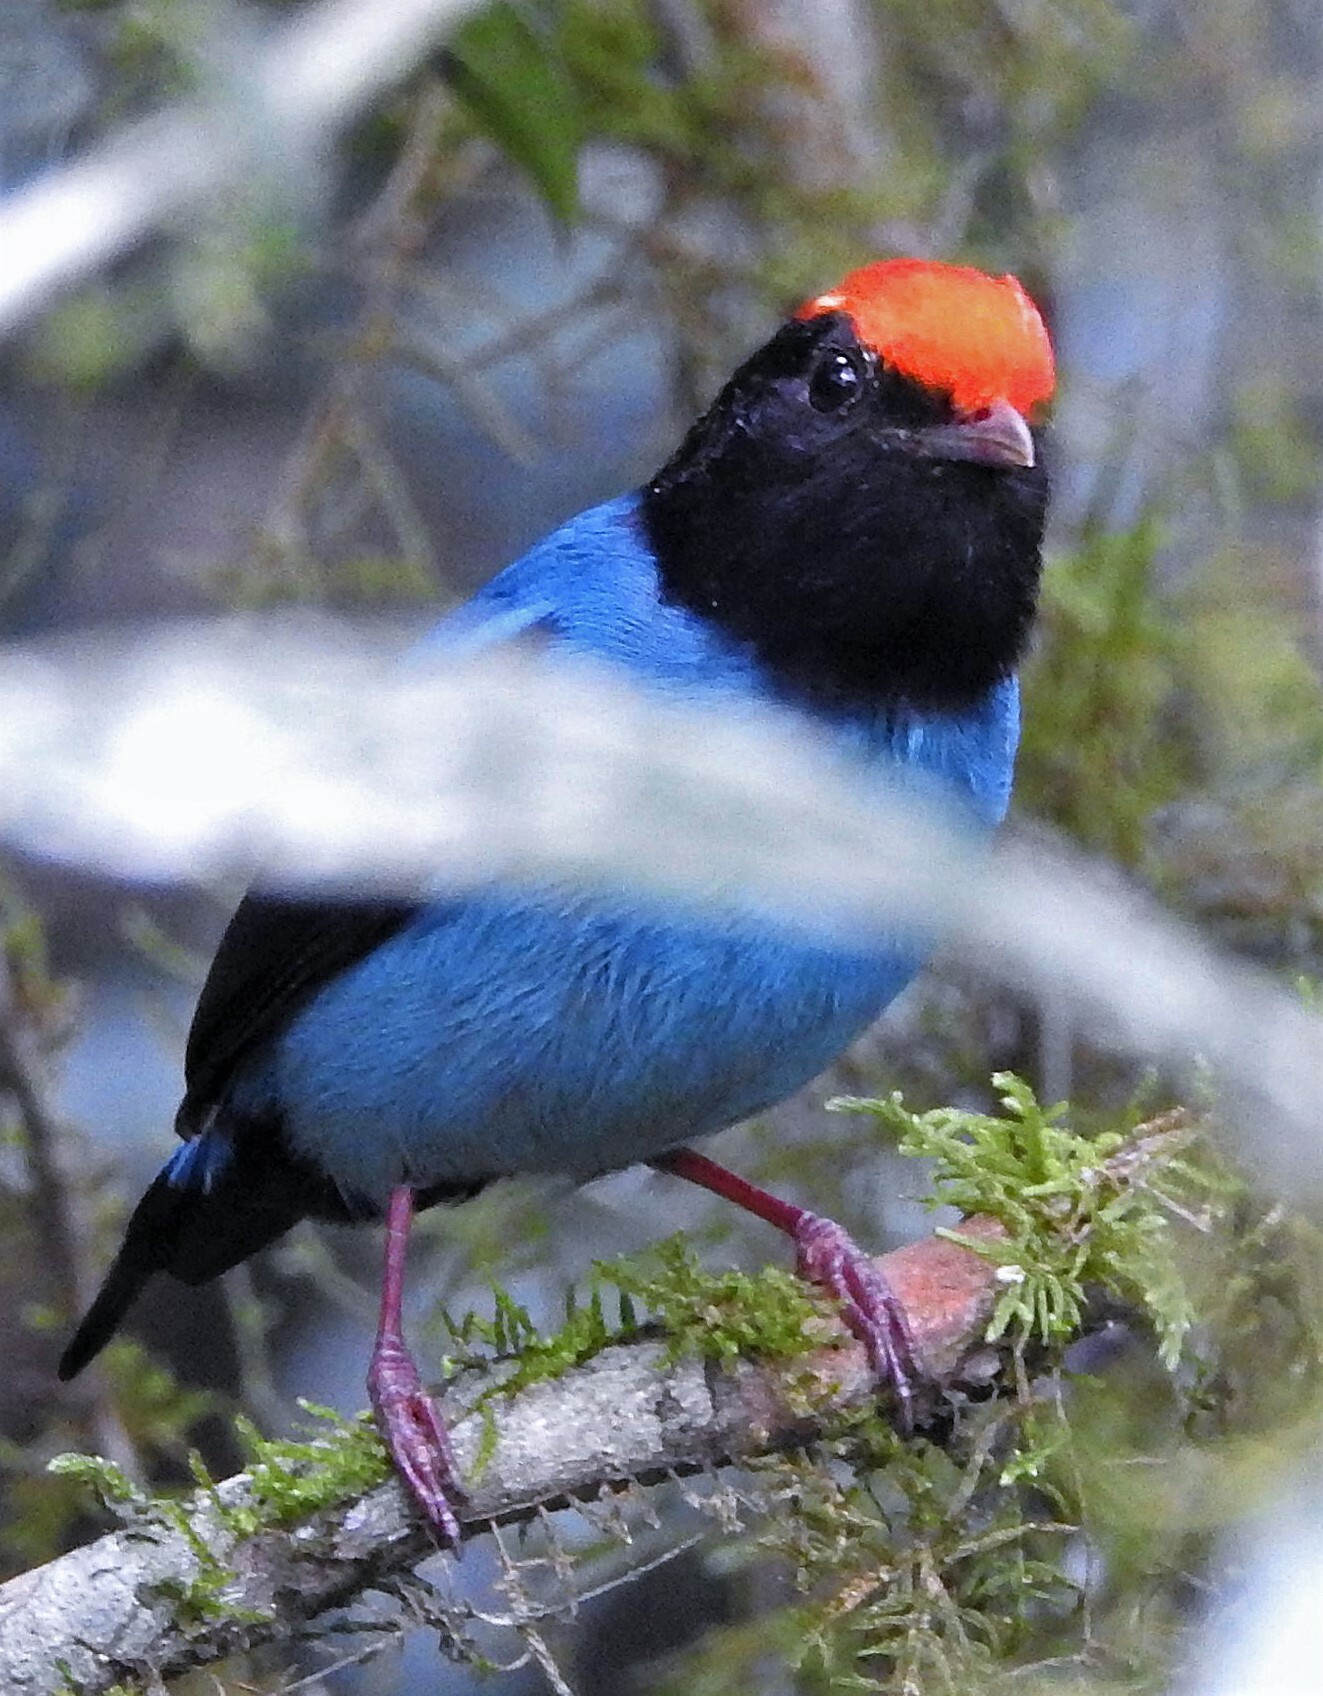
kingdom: Animalia
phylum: Chordata
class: Aves
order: Passeriformes
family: Pipridae
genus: Chiroxiphia
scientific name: Chiroxiphia caudata
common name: Blue manakin
